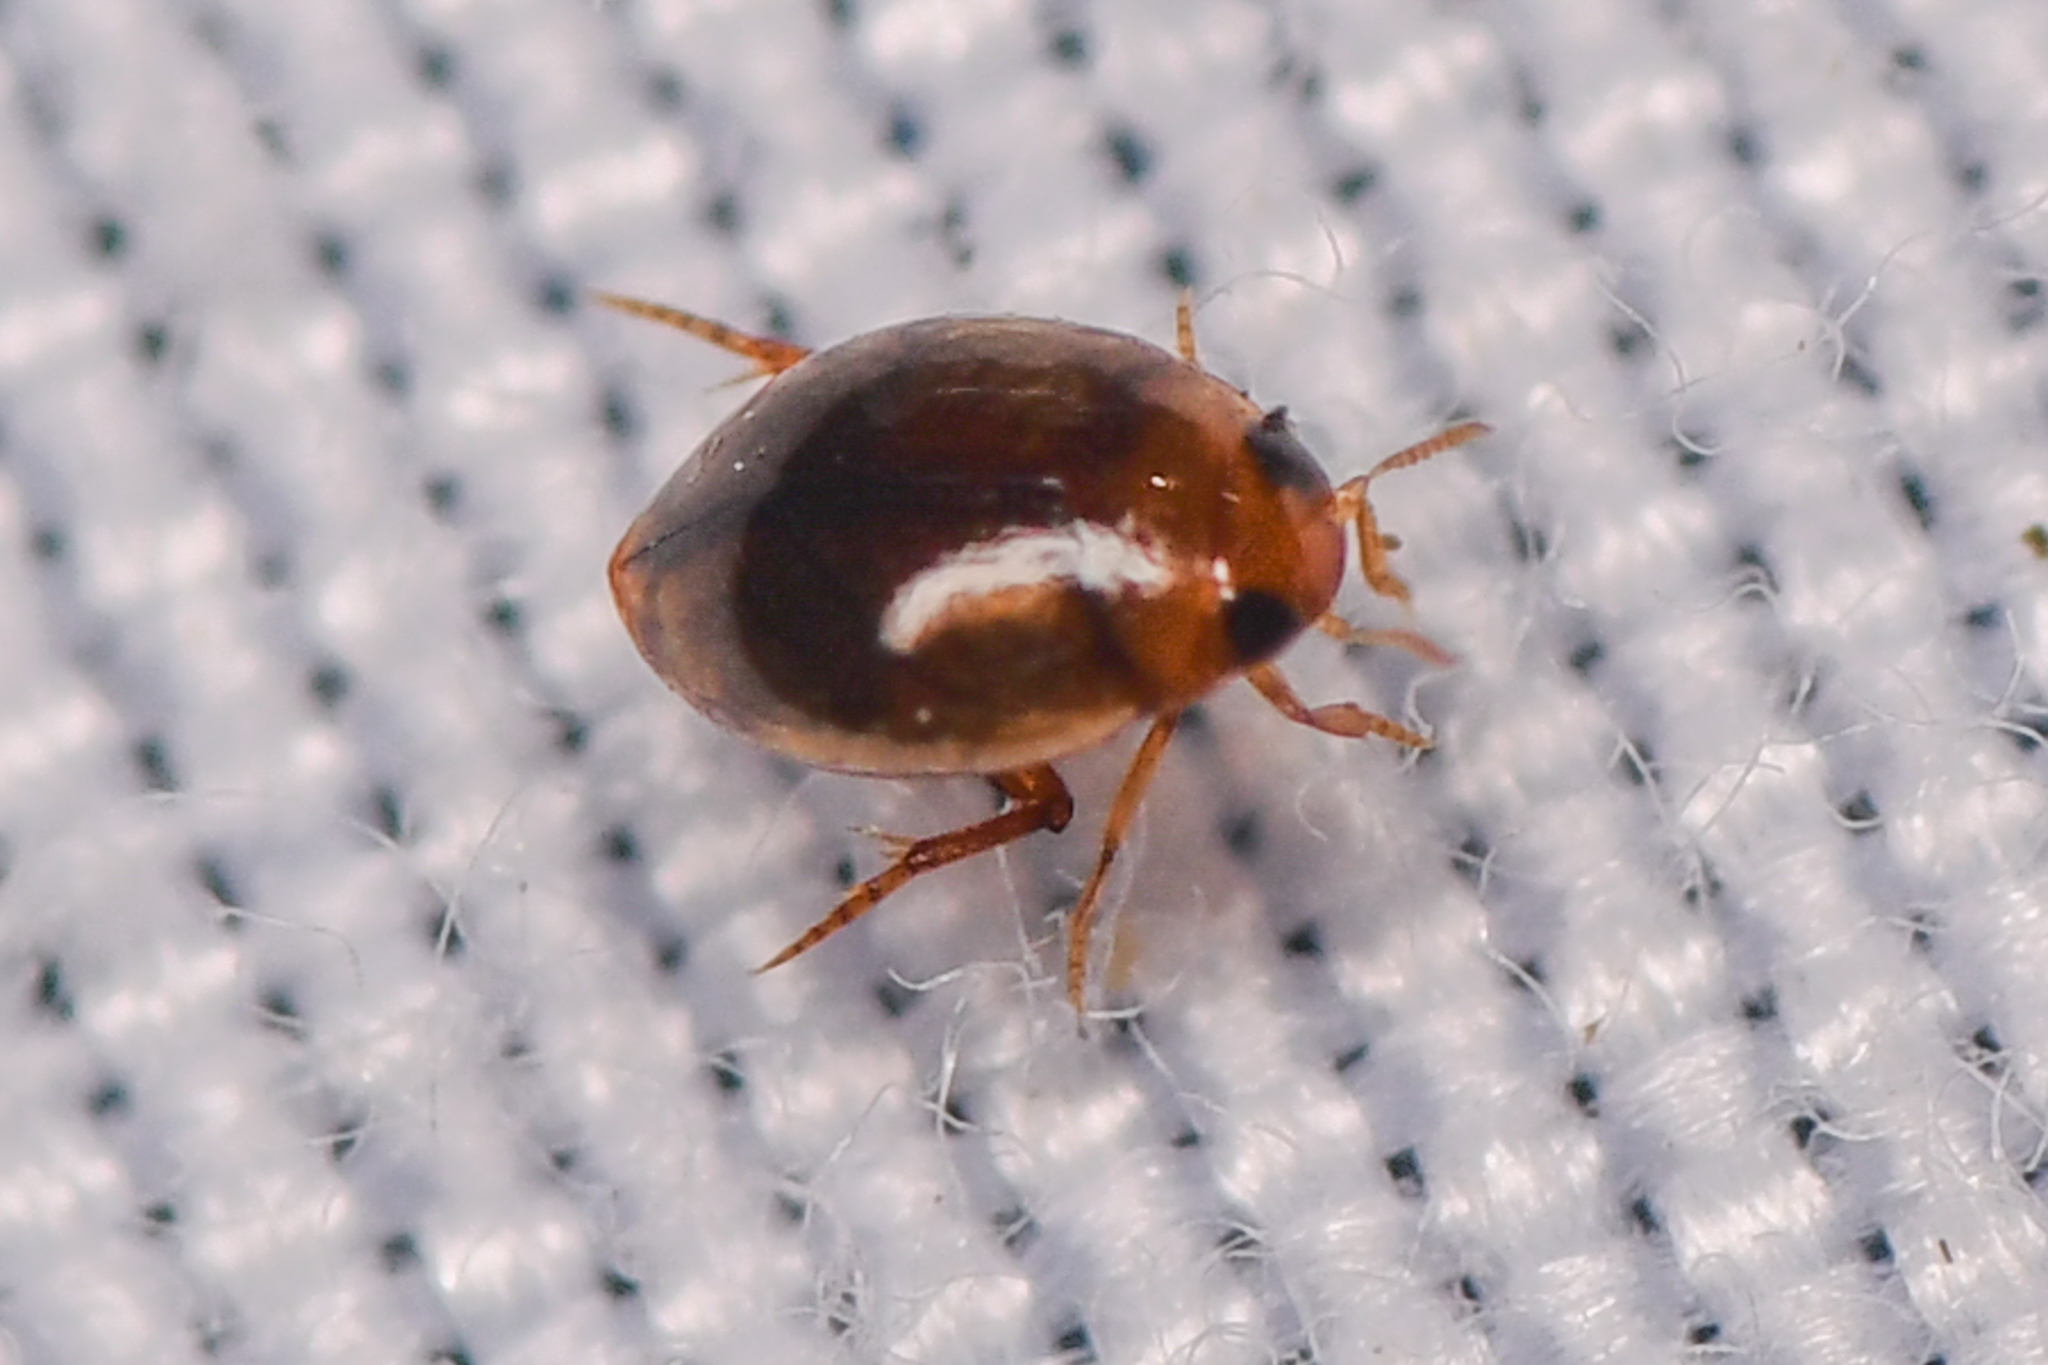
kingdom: Animalia
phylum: Arthropoda
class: Insecta
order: Coleoptera
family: Dytiscidae
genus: Desmopachria
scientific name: Desmopachria
